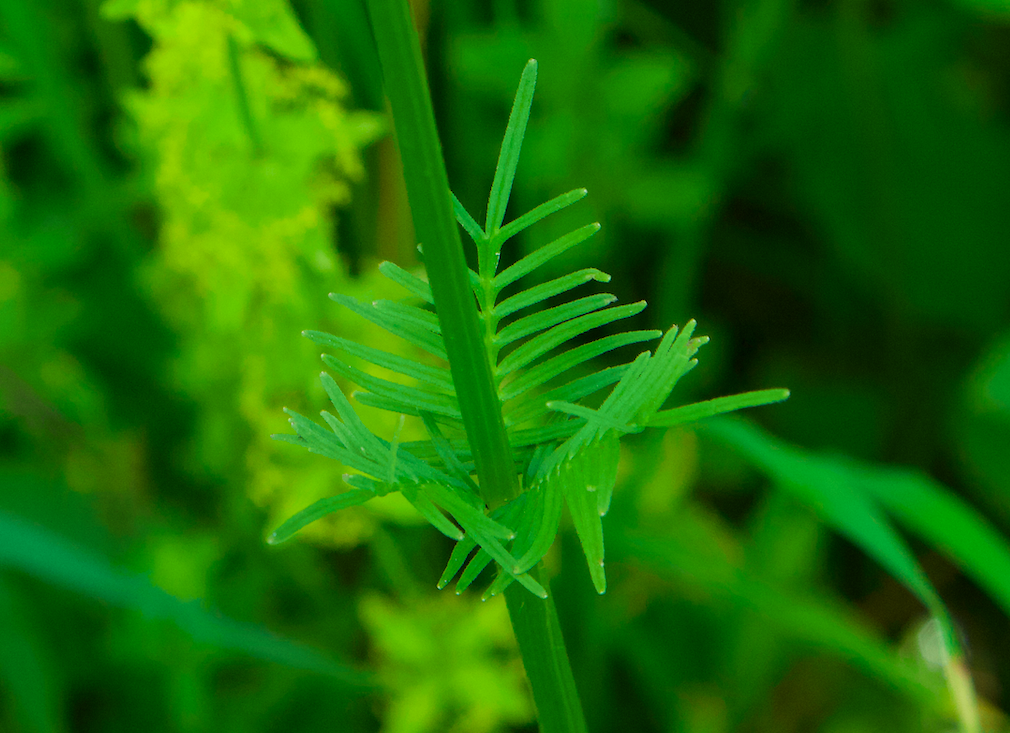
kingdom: Plantae
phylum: Tracheophyta
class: Magnoliopsida
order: Dipsacales
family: Caprifoliaceae
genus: Valeriana
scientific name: Valeriana officinalis
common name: Common valerian
